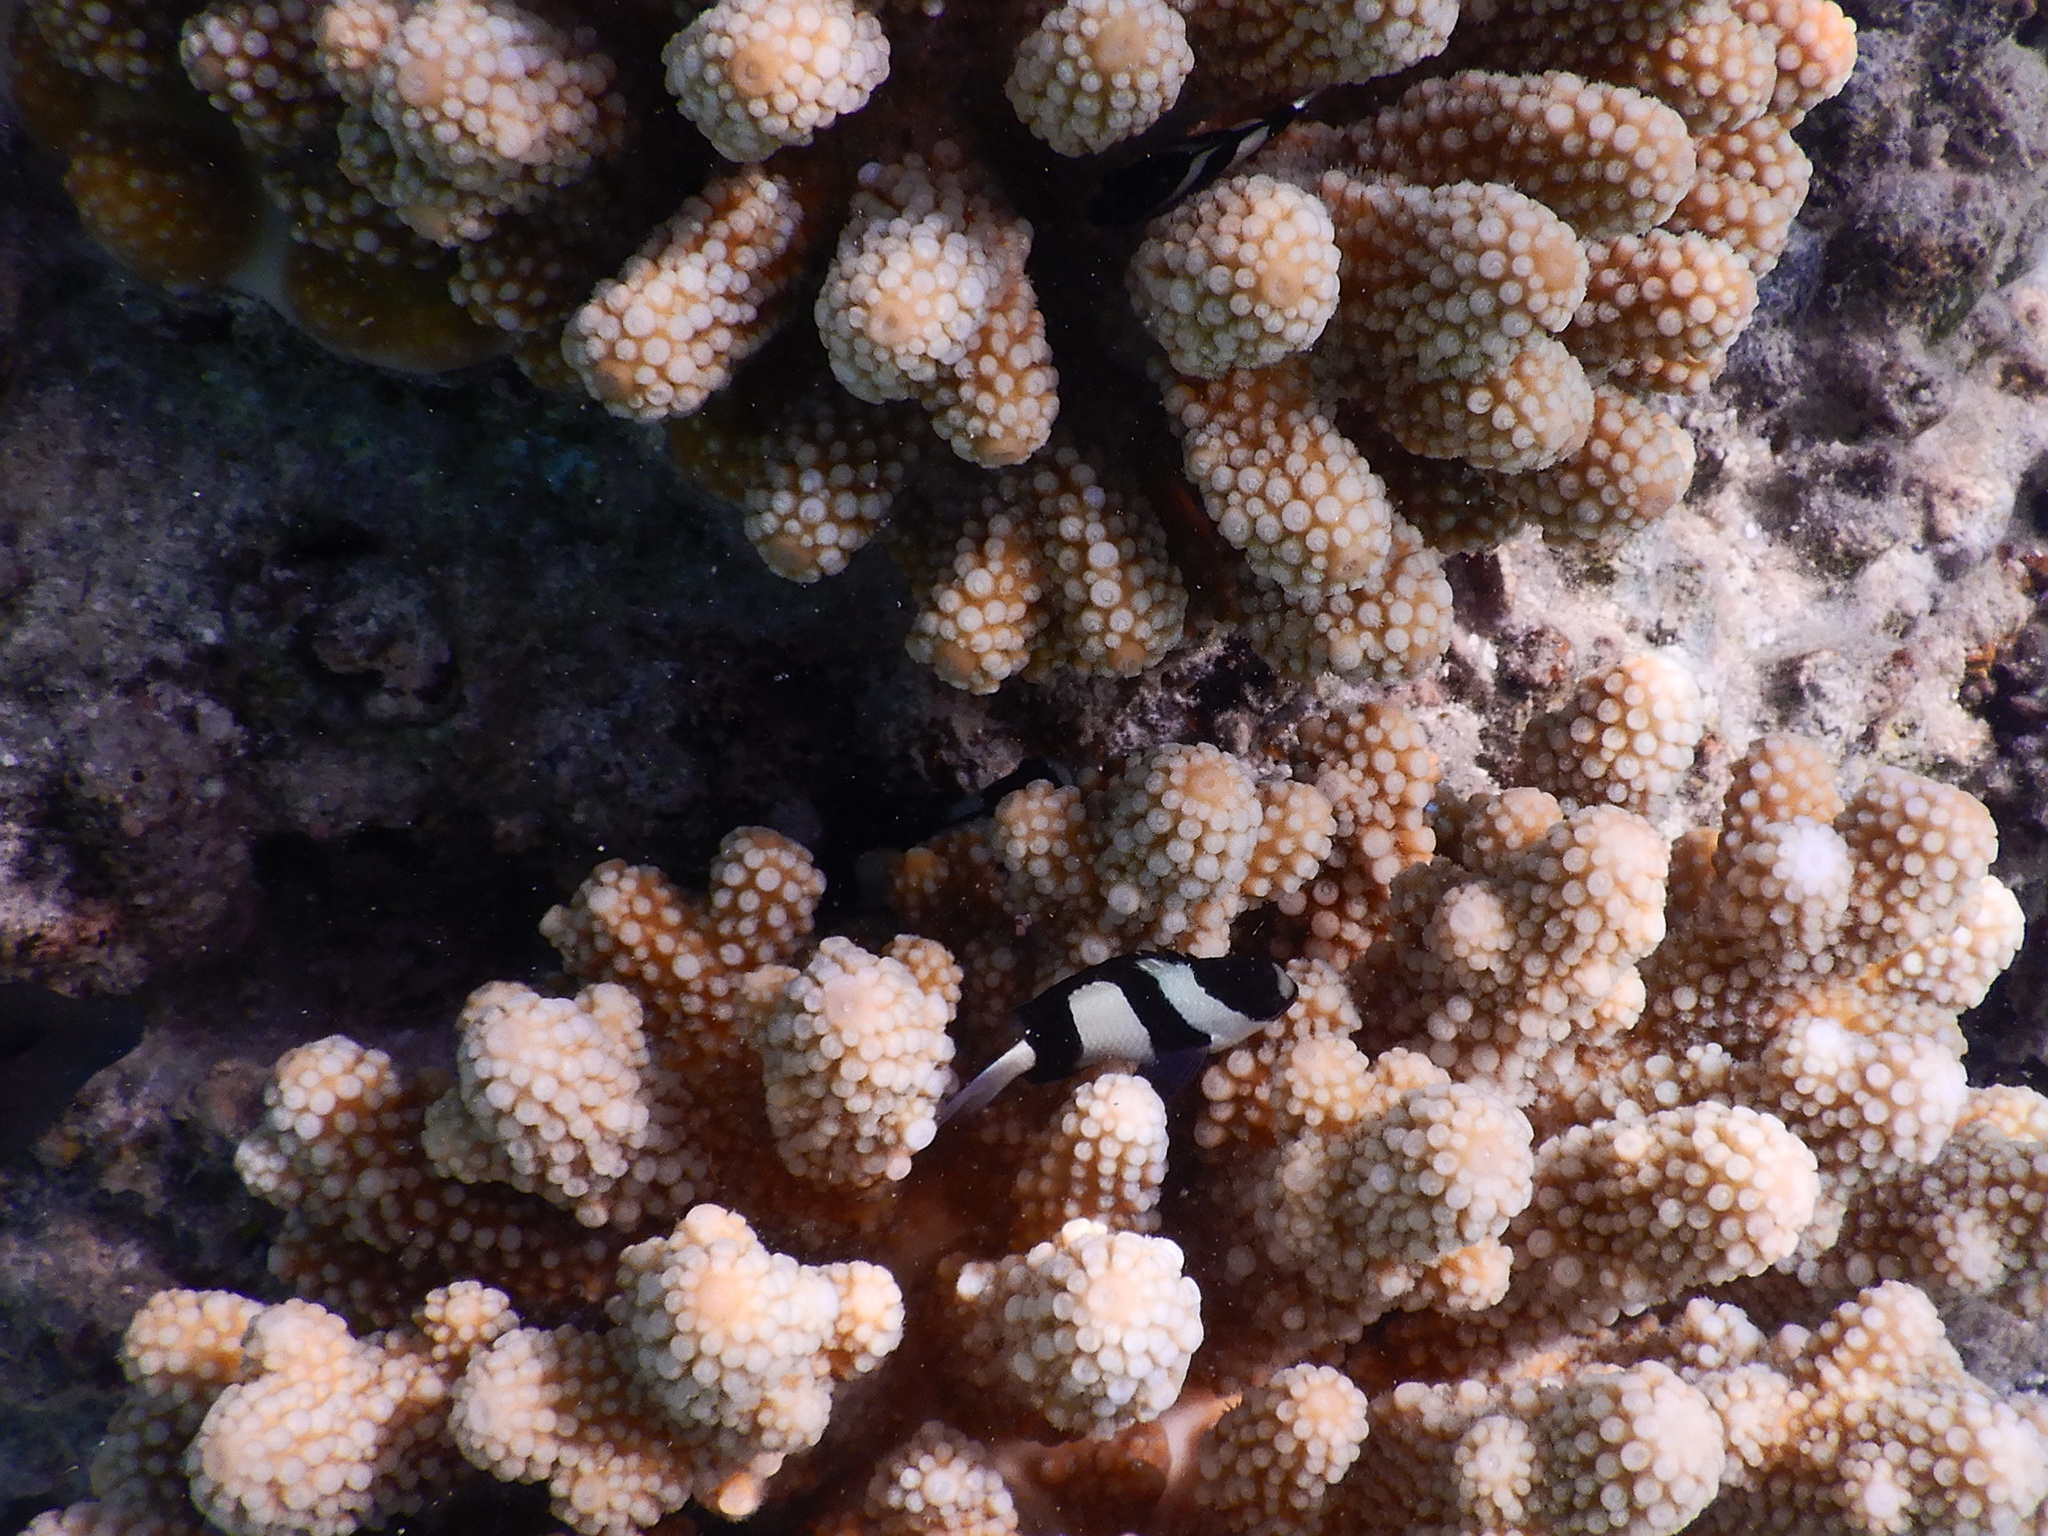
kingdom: Animalia
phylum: Chordata
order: Perciformes
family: Pomacentridae
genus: Dascyllus
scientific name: Dascyllus aruanus
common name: Humbug dascyllus
